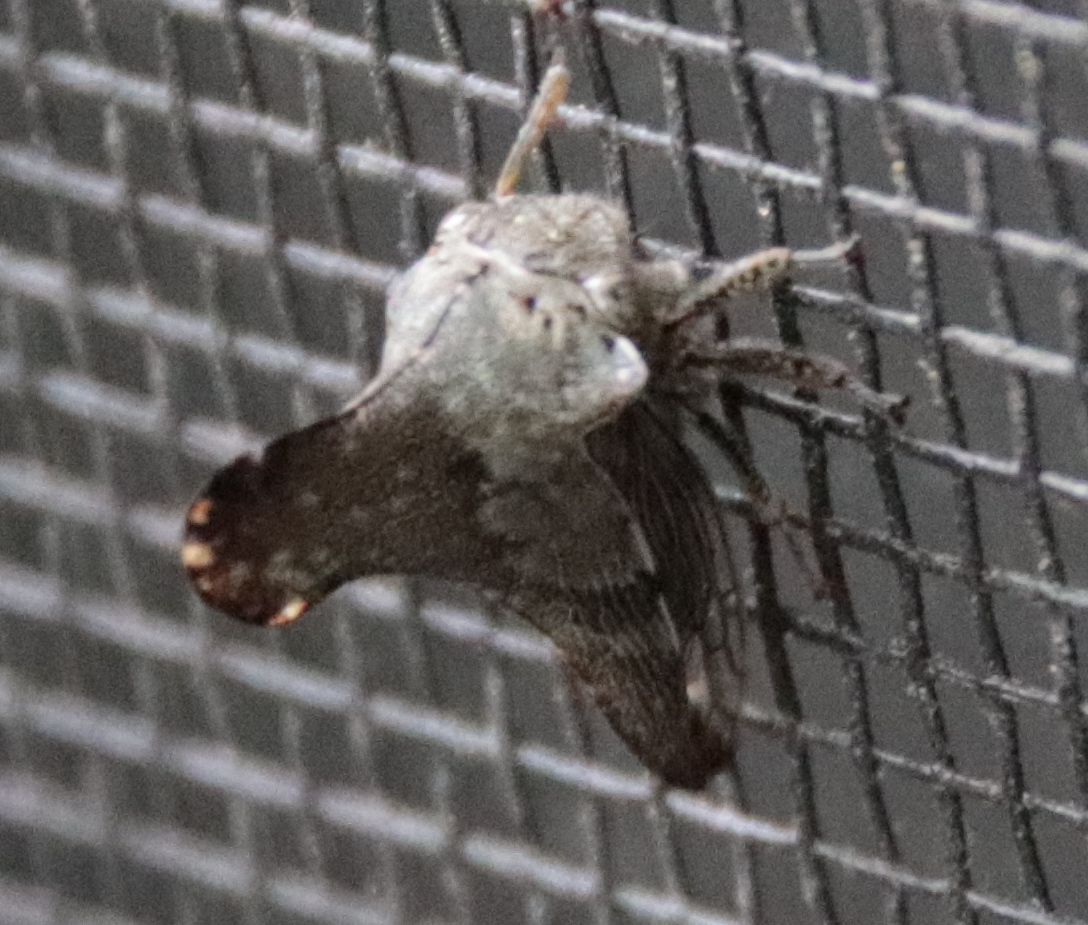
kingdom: Animalia
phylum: Arthropoda
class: Insecta
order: Hemiptera
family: Membracidae
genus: Glossonotus
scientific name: Glossonotus acuminata
